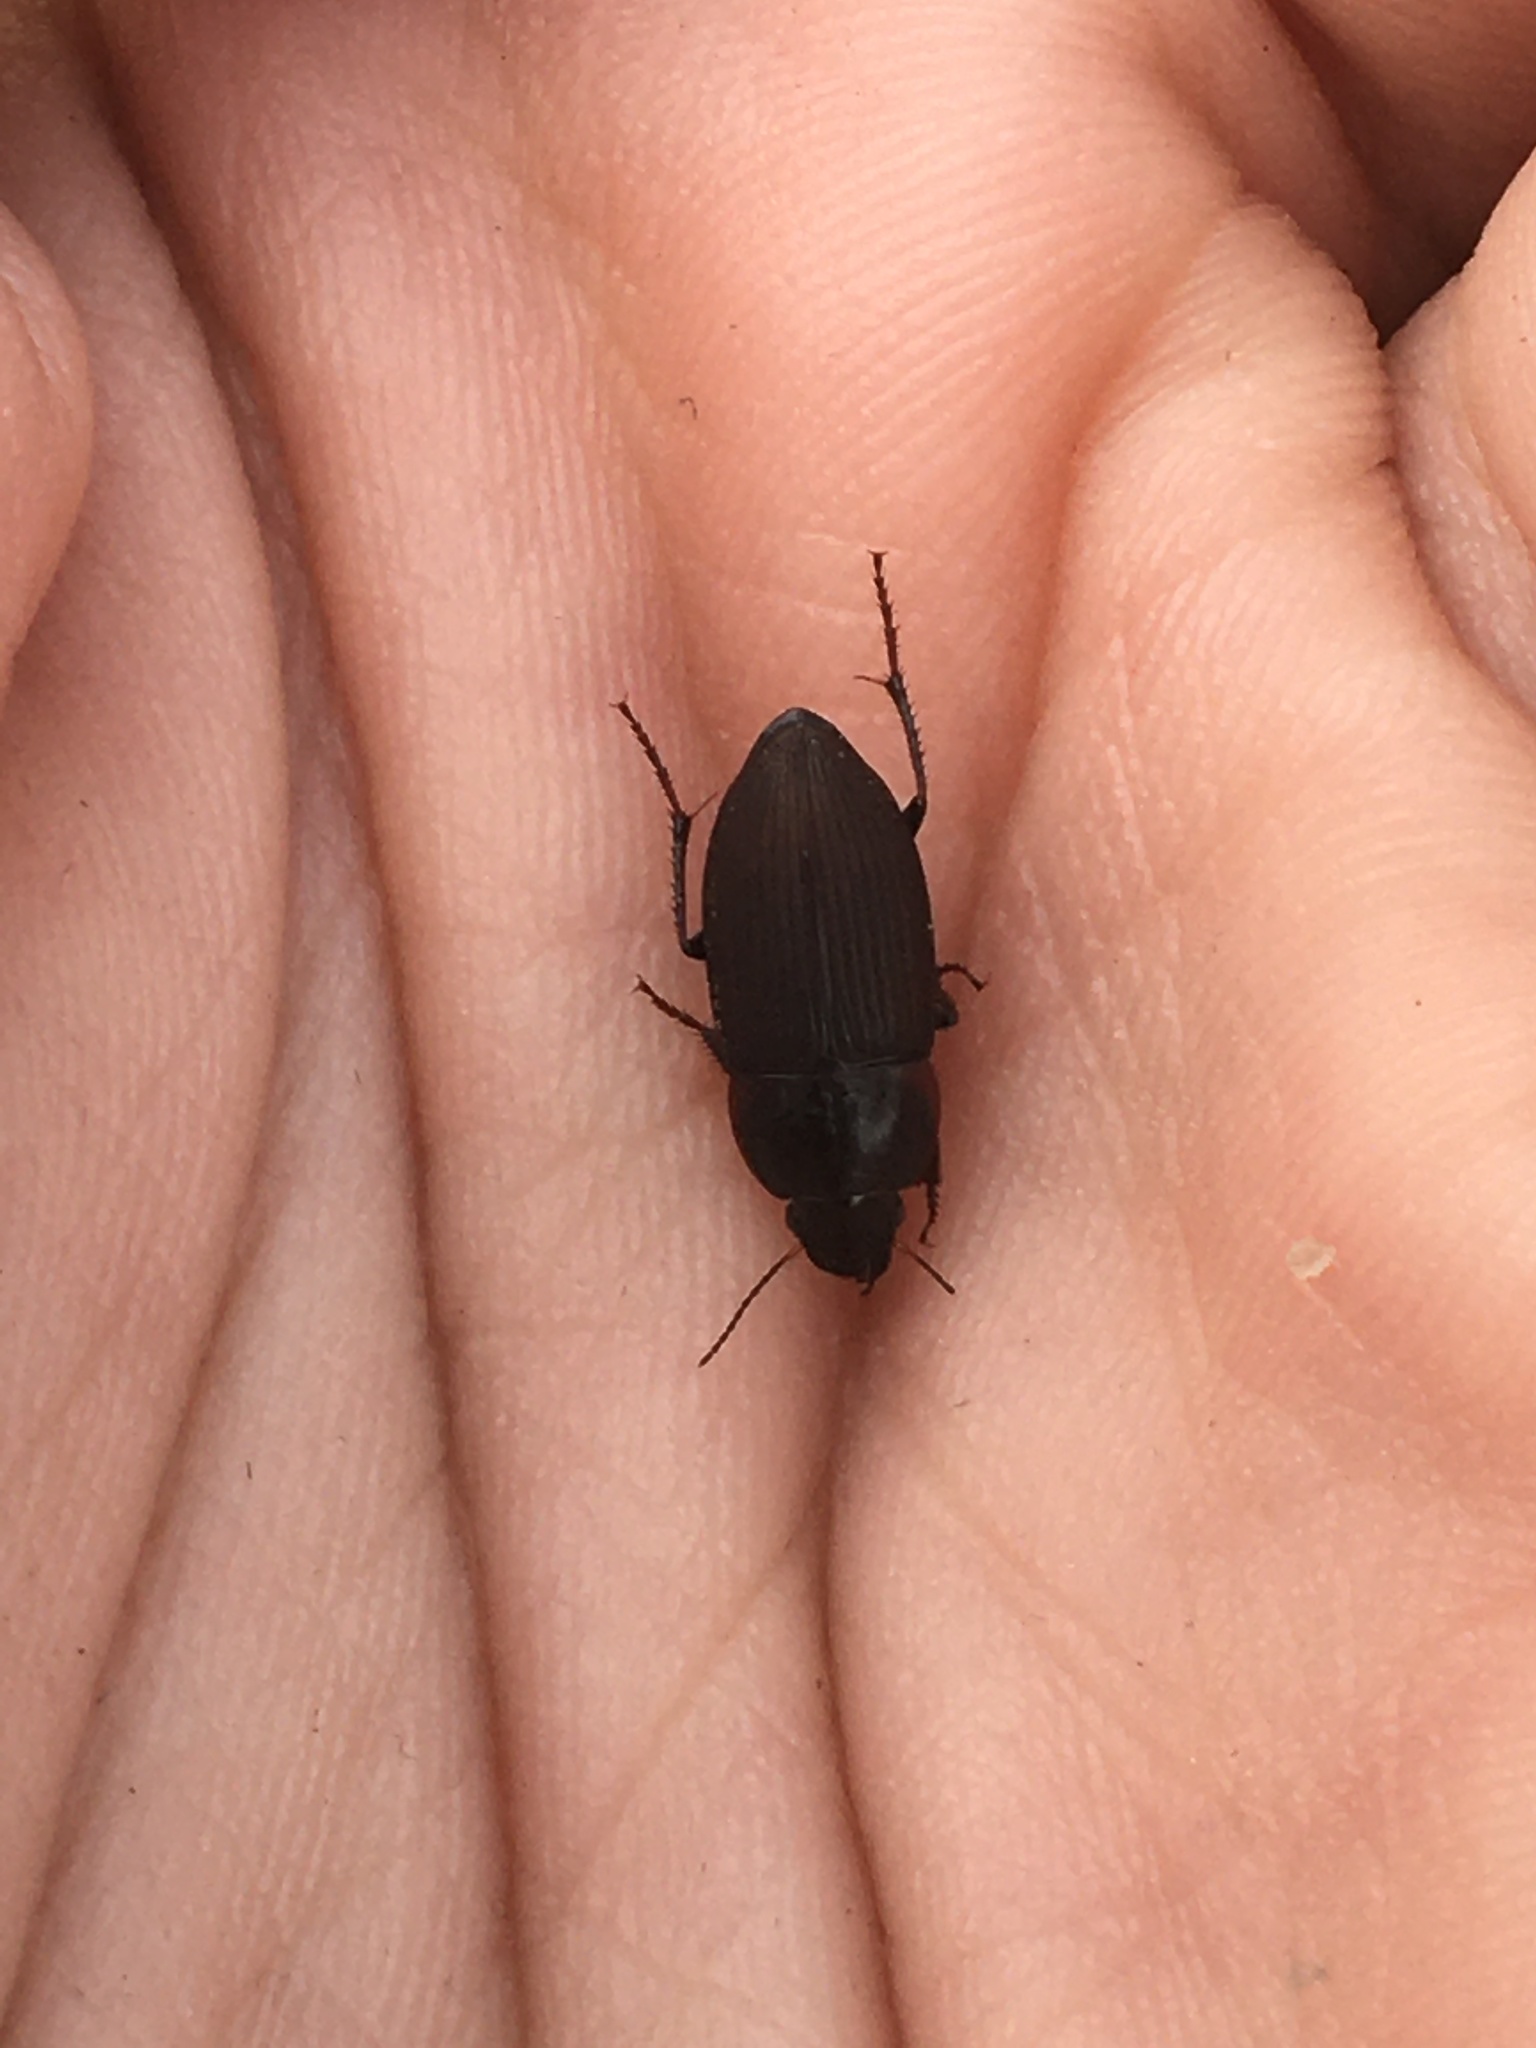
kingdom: Animalia
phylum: Arthropoda
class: Insecta
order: Coleoptera
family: Carabidae
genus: Anisodactylus
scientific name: Anisodactylus rusticus
